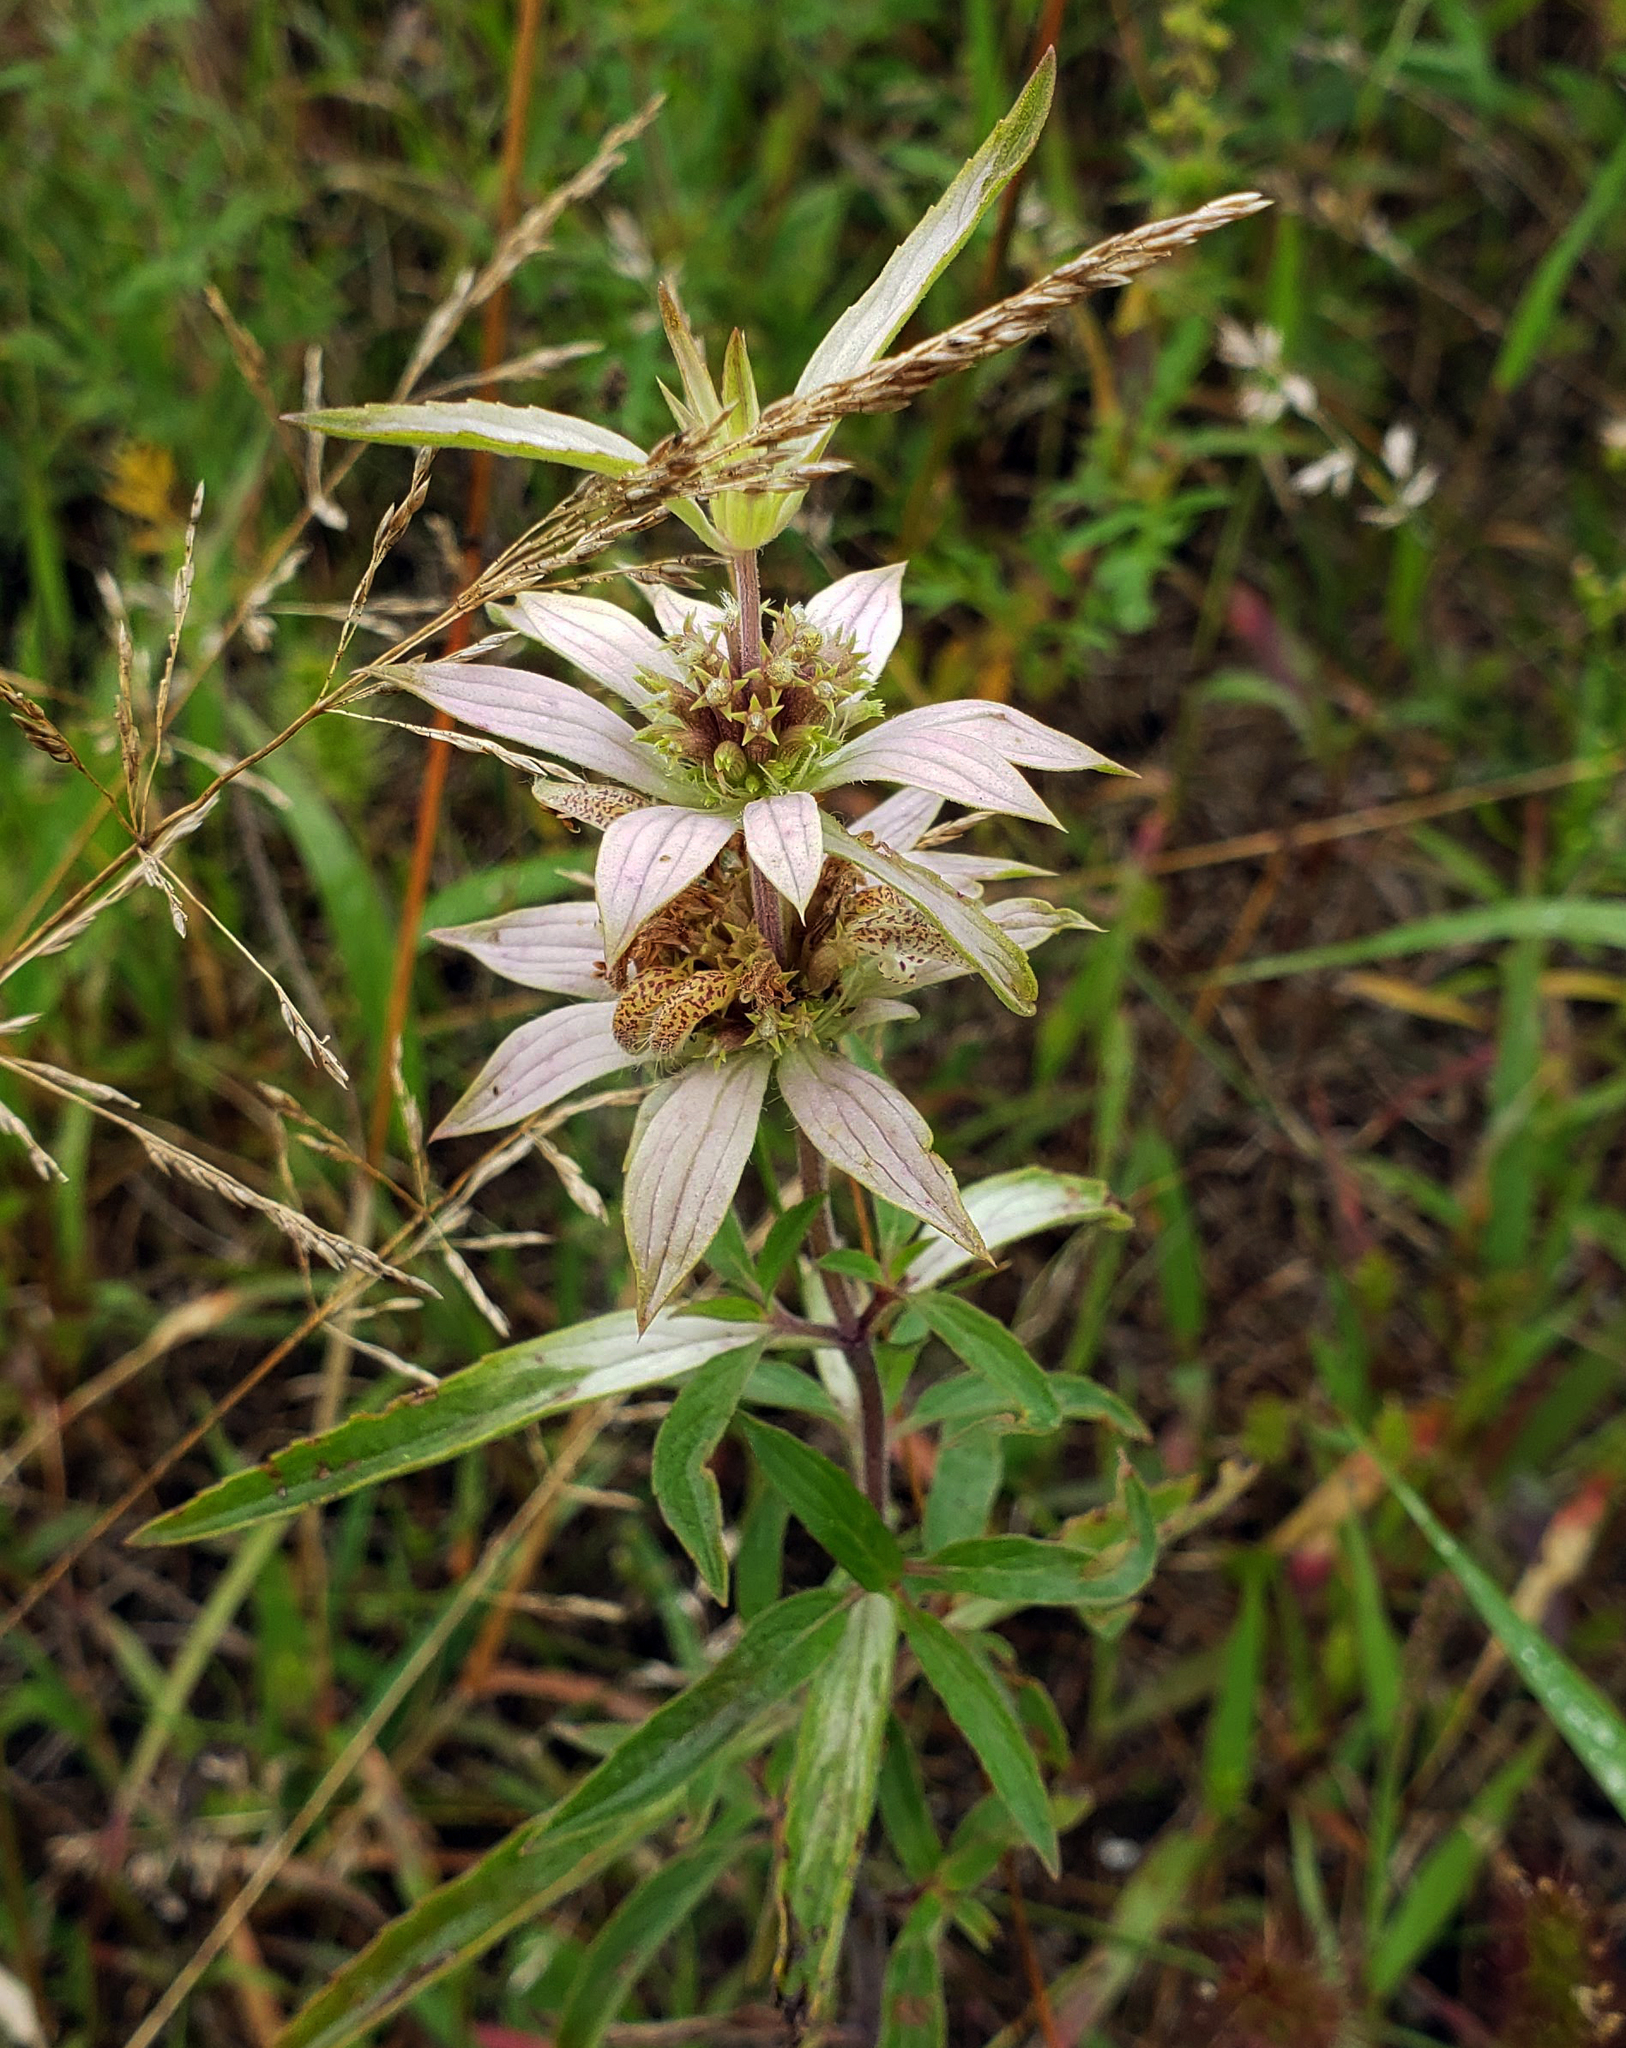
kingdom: Plantae
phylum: Tracheophyta
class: Magnoliopsida
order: Lamiales
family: Lamiaceae
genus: Monarda
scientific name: Monarda punctata
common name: Dotted monarda
